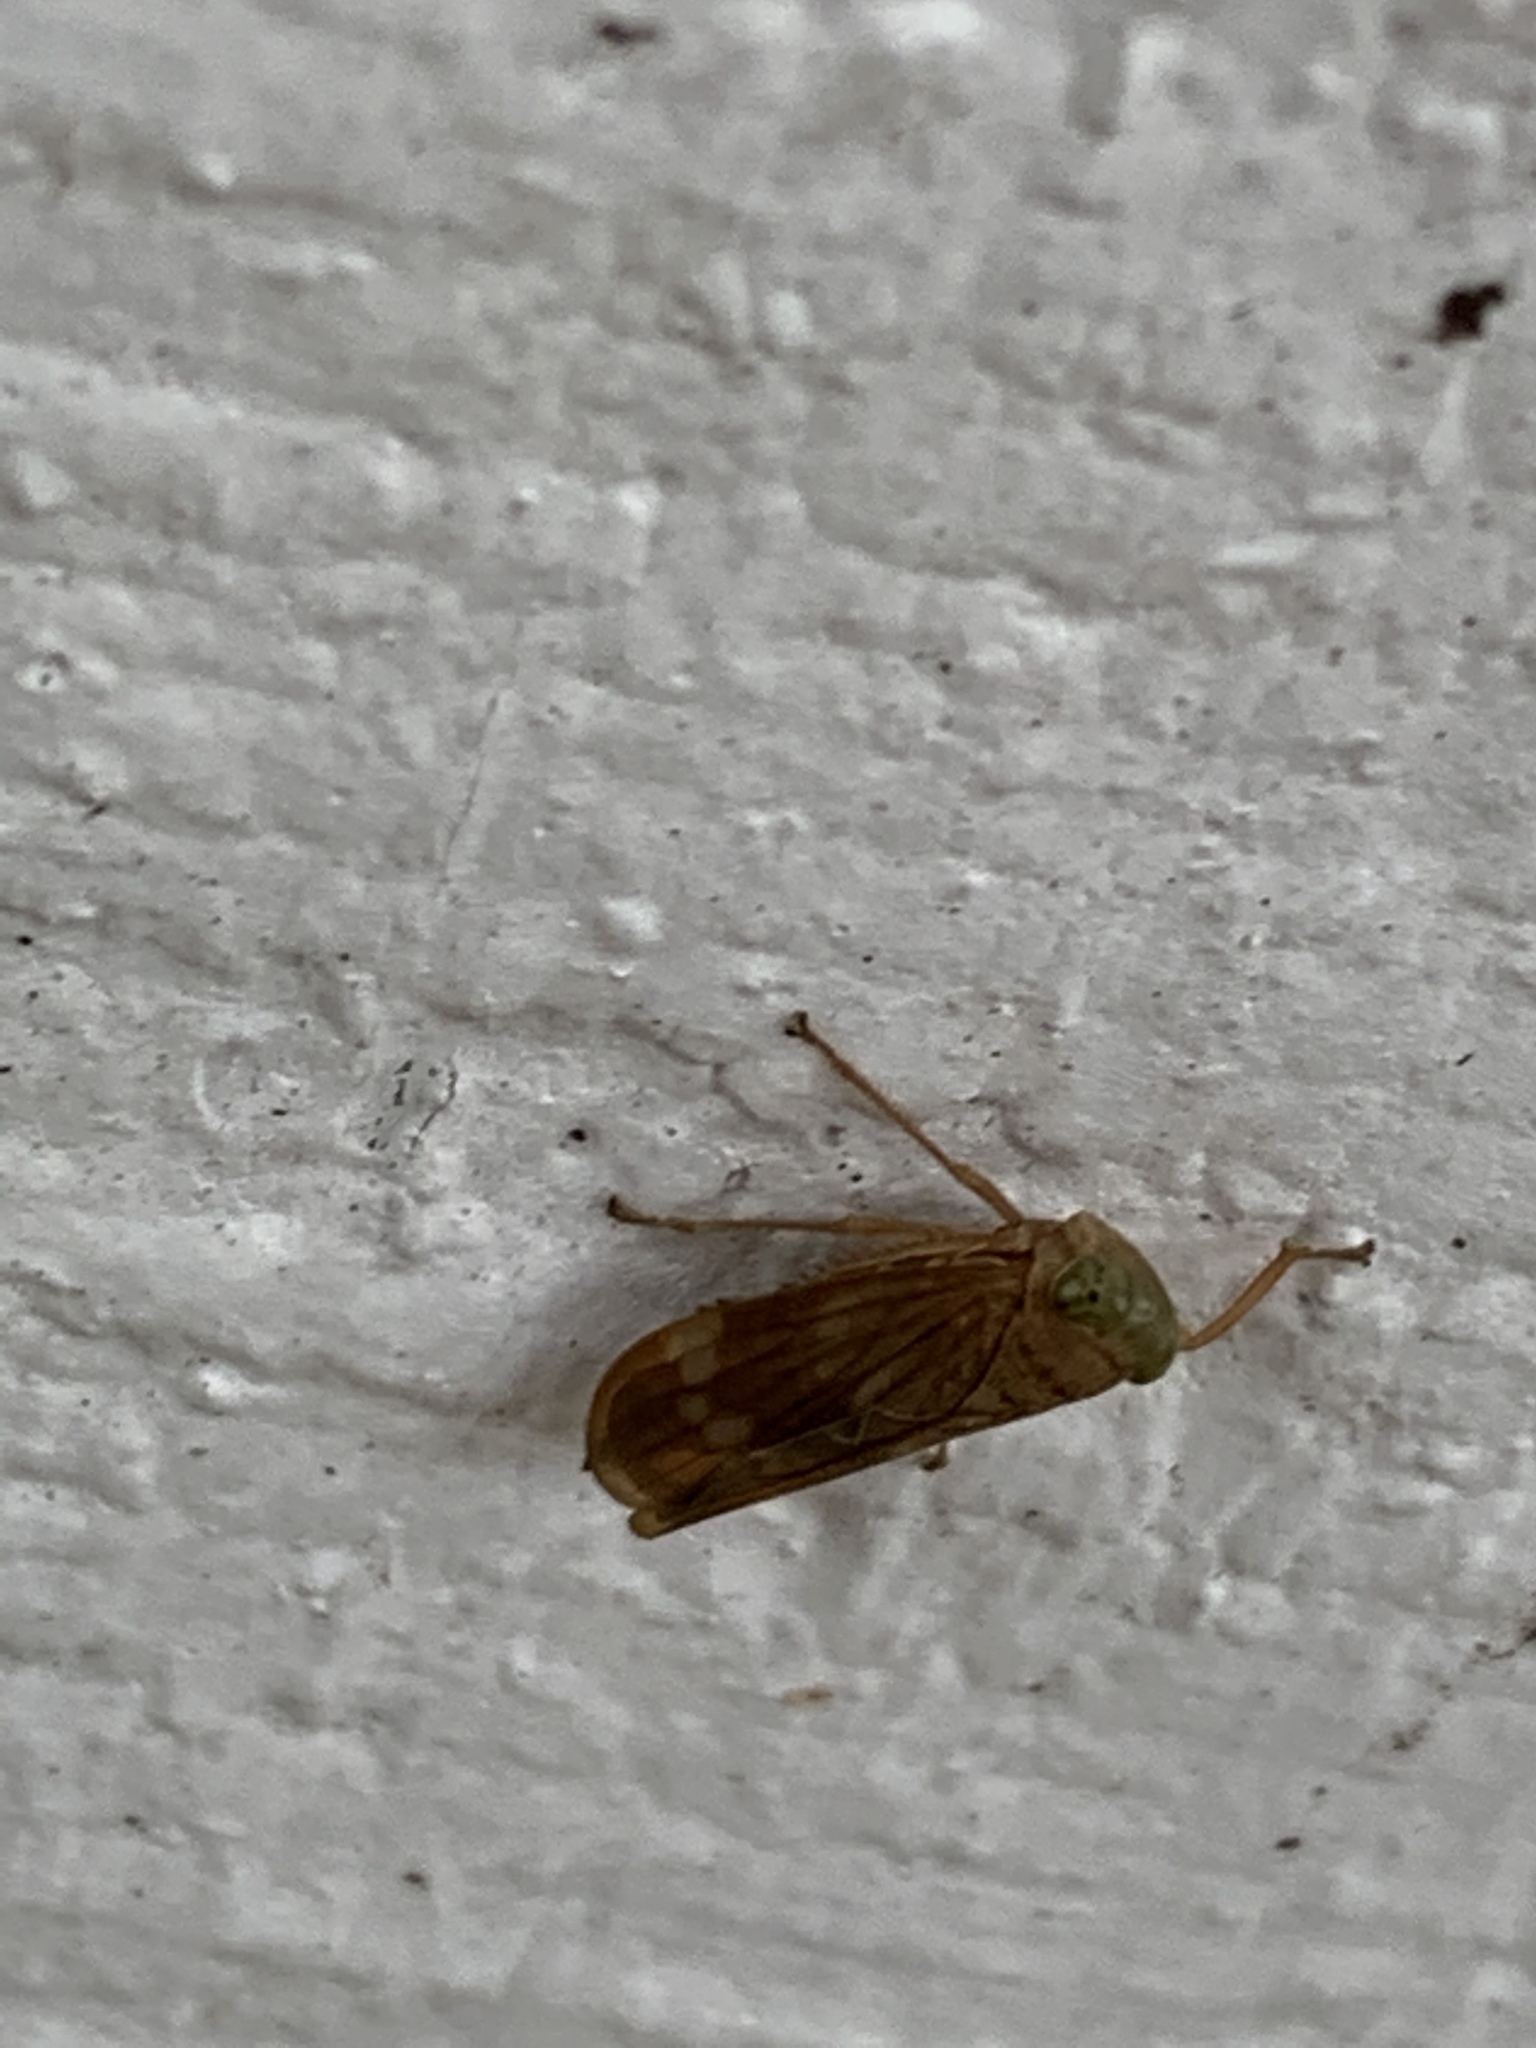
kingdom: Animalia
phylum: Arthropoda
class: Insecta
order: Hemiptera
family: Cicadellidae
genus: Jikradia
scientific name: Jikradia olitoria
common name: Coppery leafhopper
